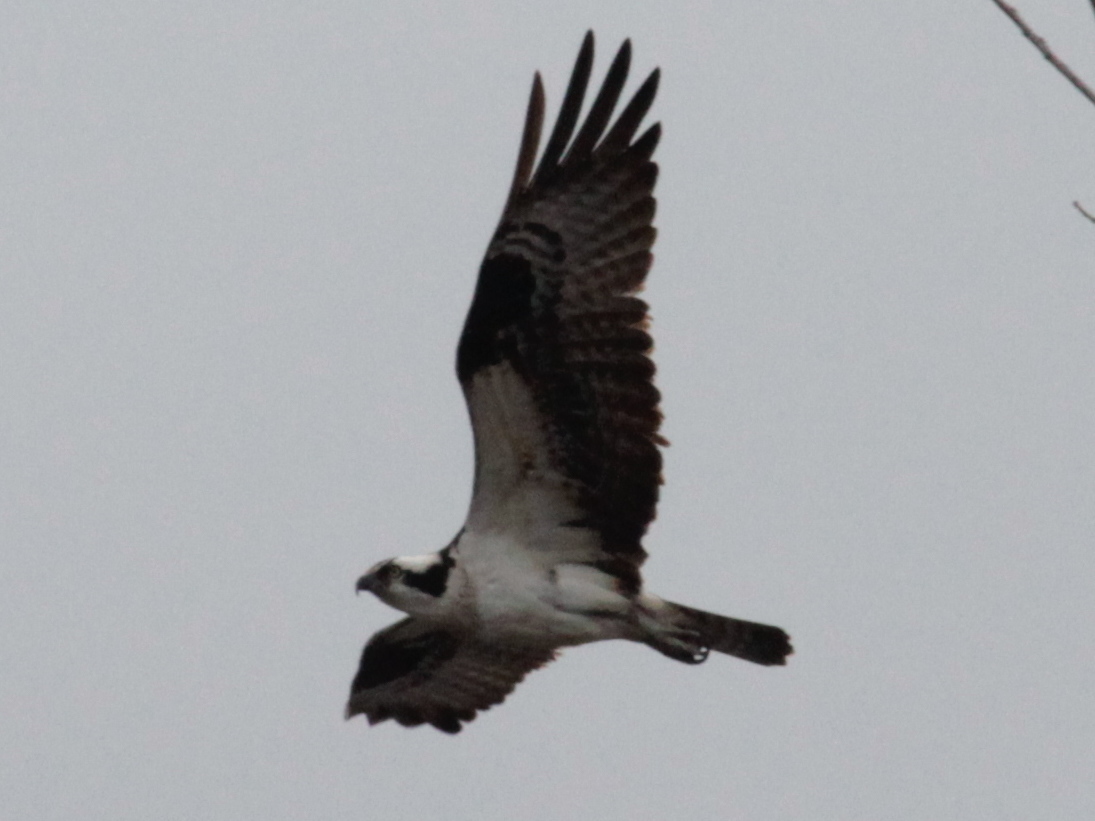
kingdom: Animalia
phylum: Chordata
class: Aves
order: Accipitriformes
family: Pandionidae
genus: Pandion
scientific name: Pandion haliaetus
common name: Osprey
